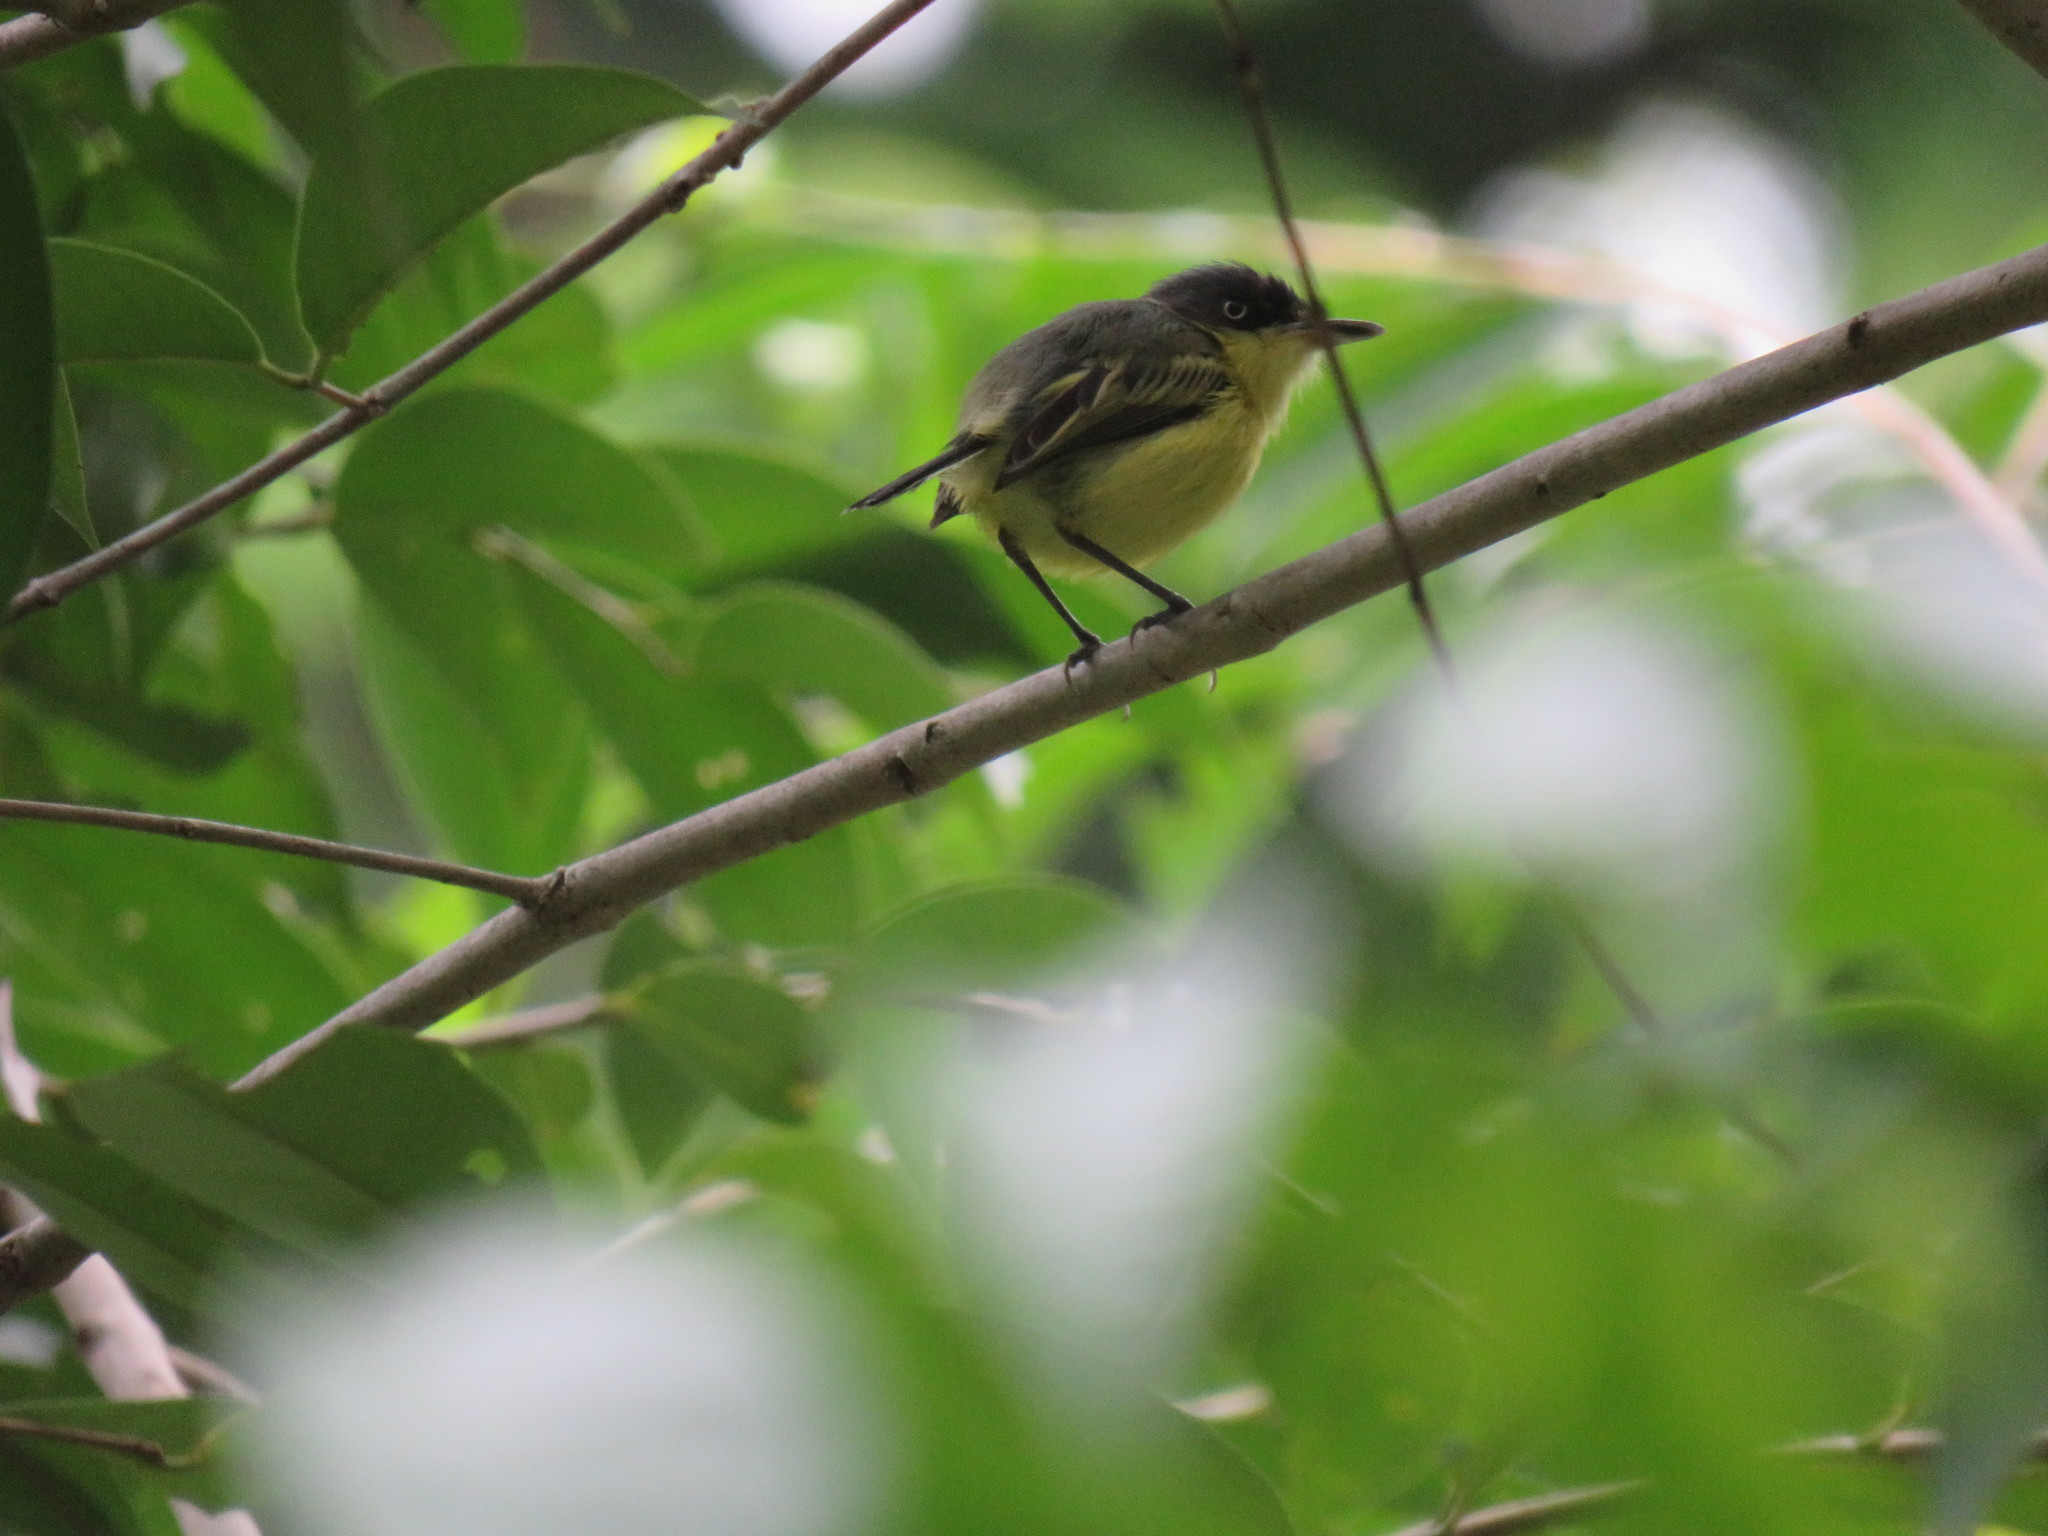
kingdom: Animalia
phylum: Chordata
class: Aves
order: Passeriformes
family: Tyrannidae
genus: Todirostrum
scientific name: Todirostrum cinereum
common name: Common tody-flycatcher
